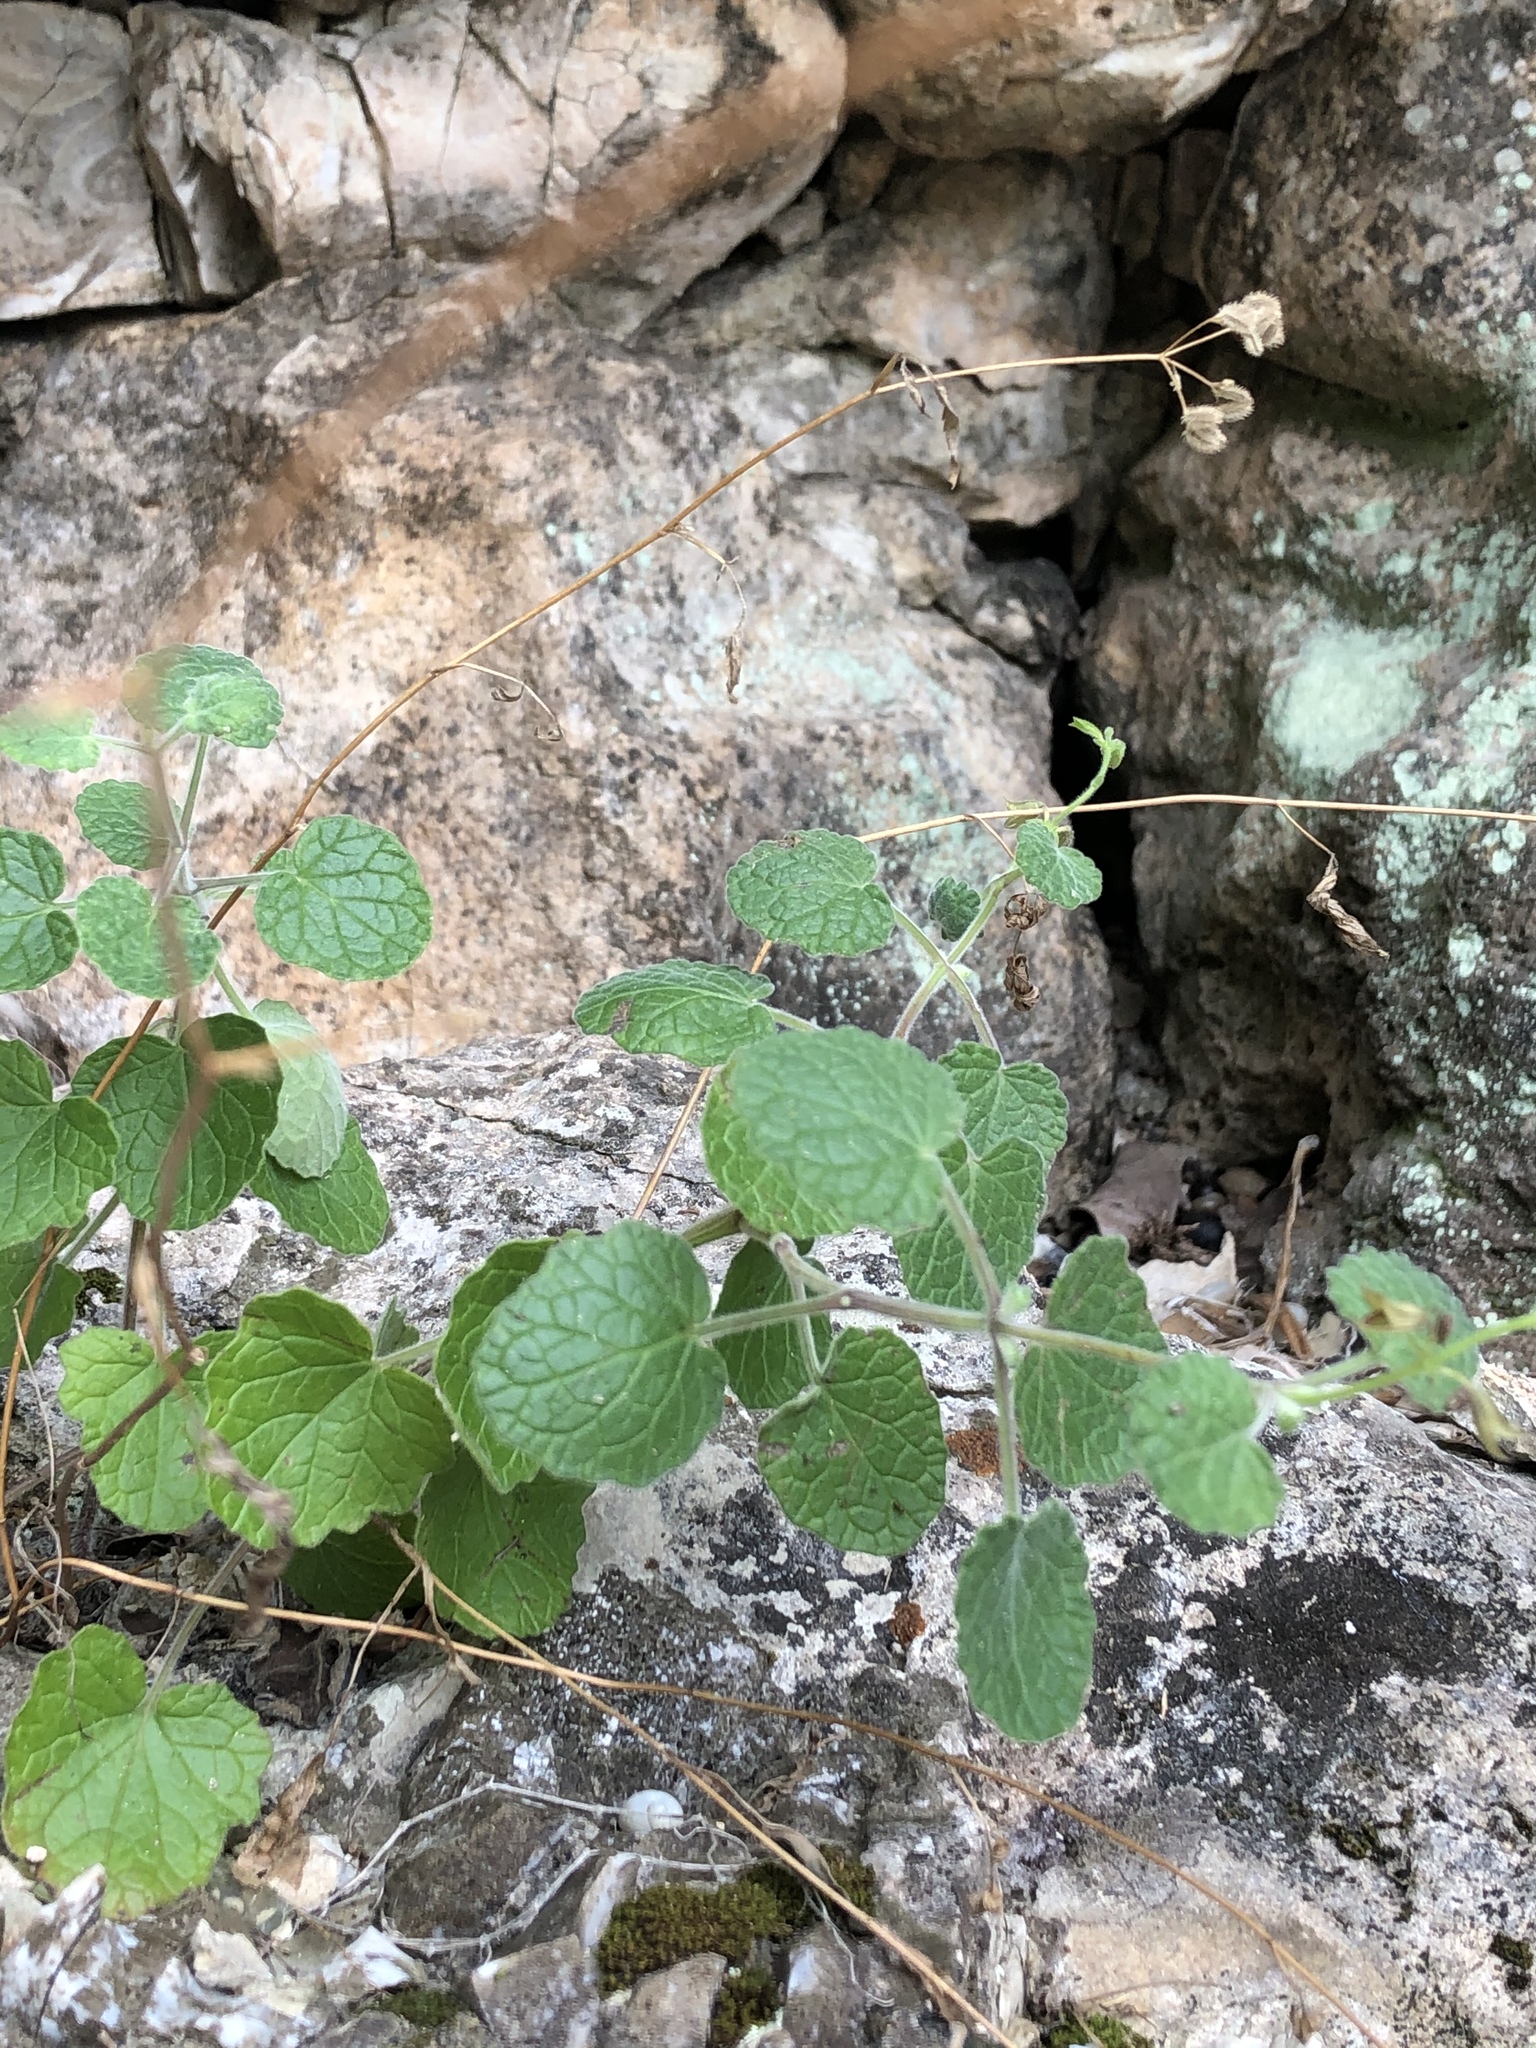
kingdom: Plantae
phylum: Tracheophyta
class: Magnoliopsida
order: Lamiales
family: Lamiaceae
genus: Salvia
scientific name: Salvia roemeriana
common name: Cedar sage
